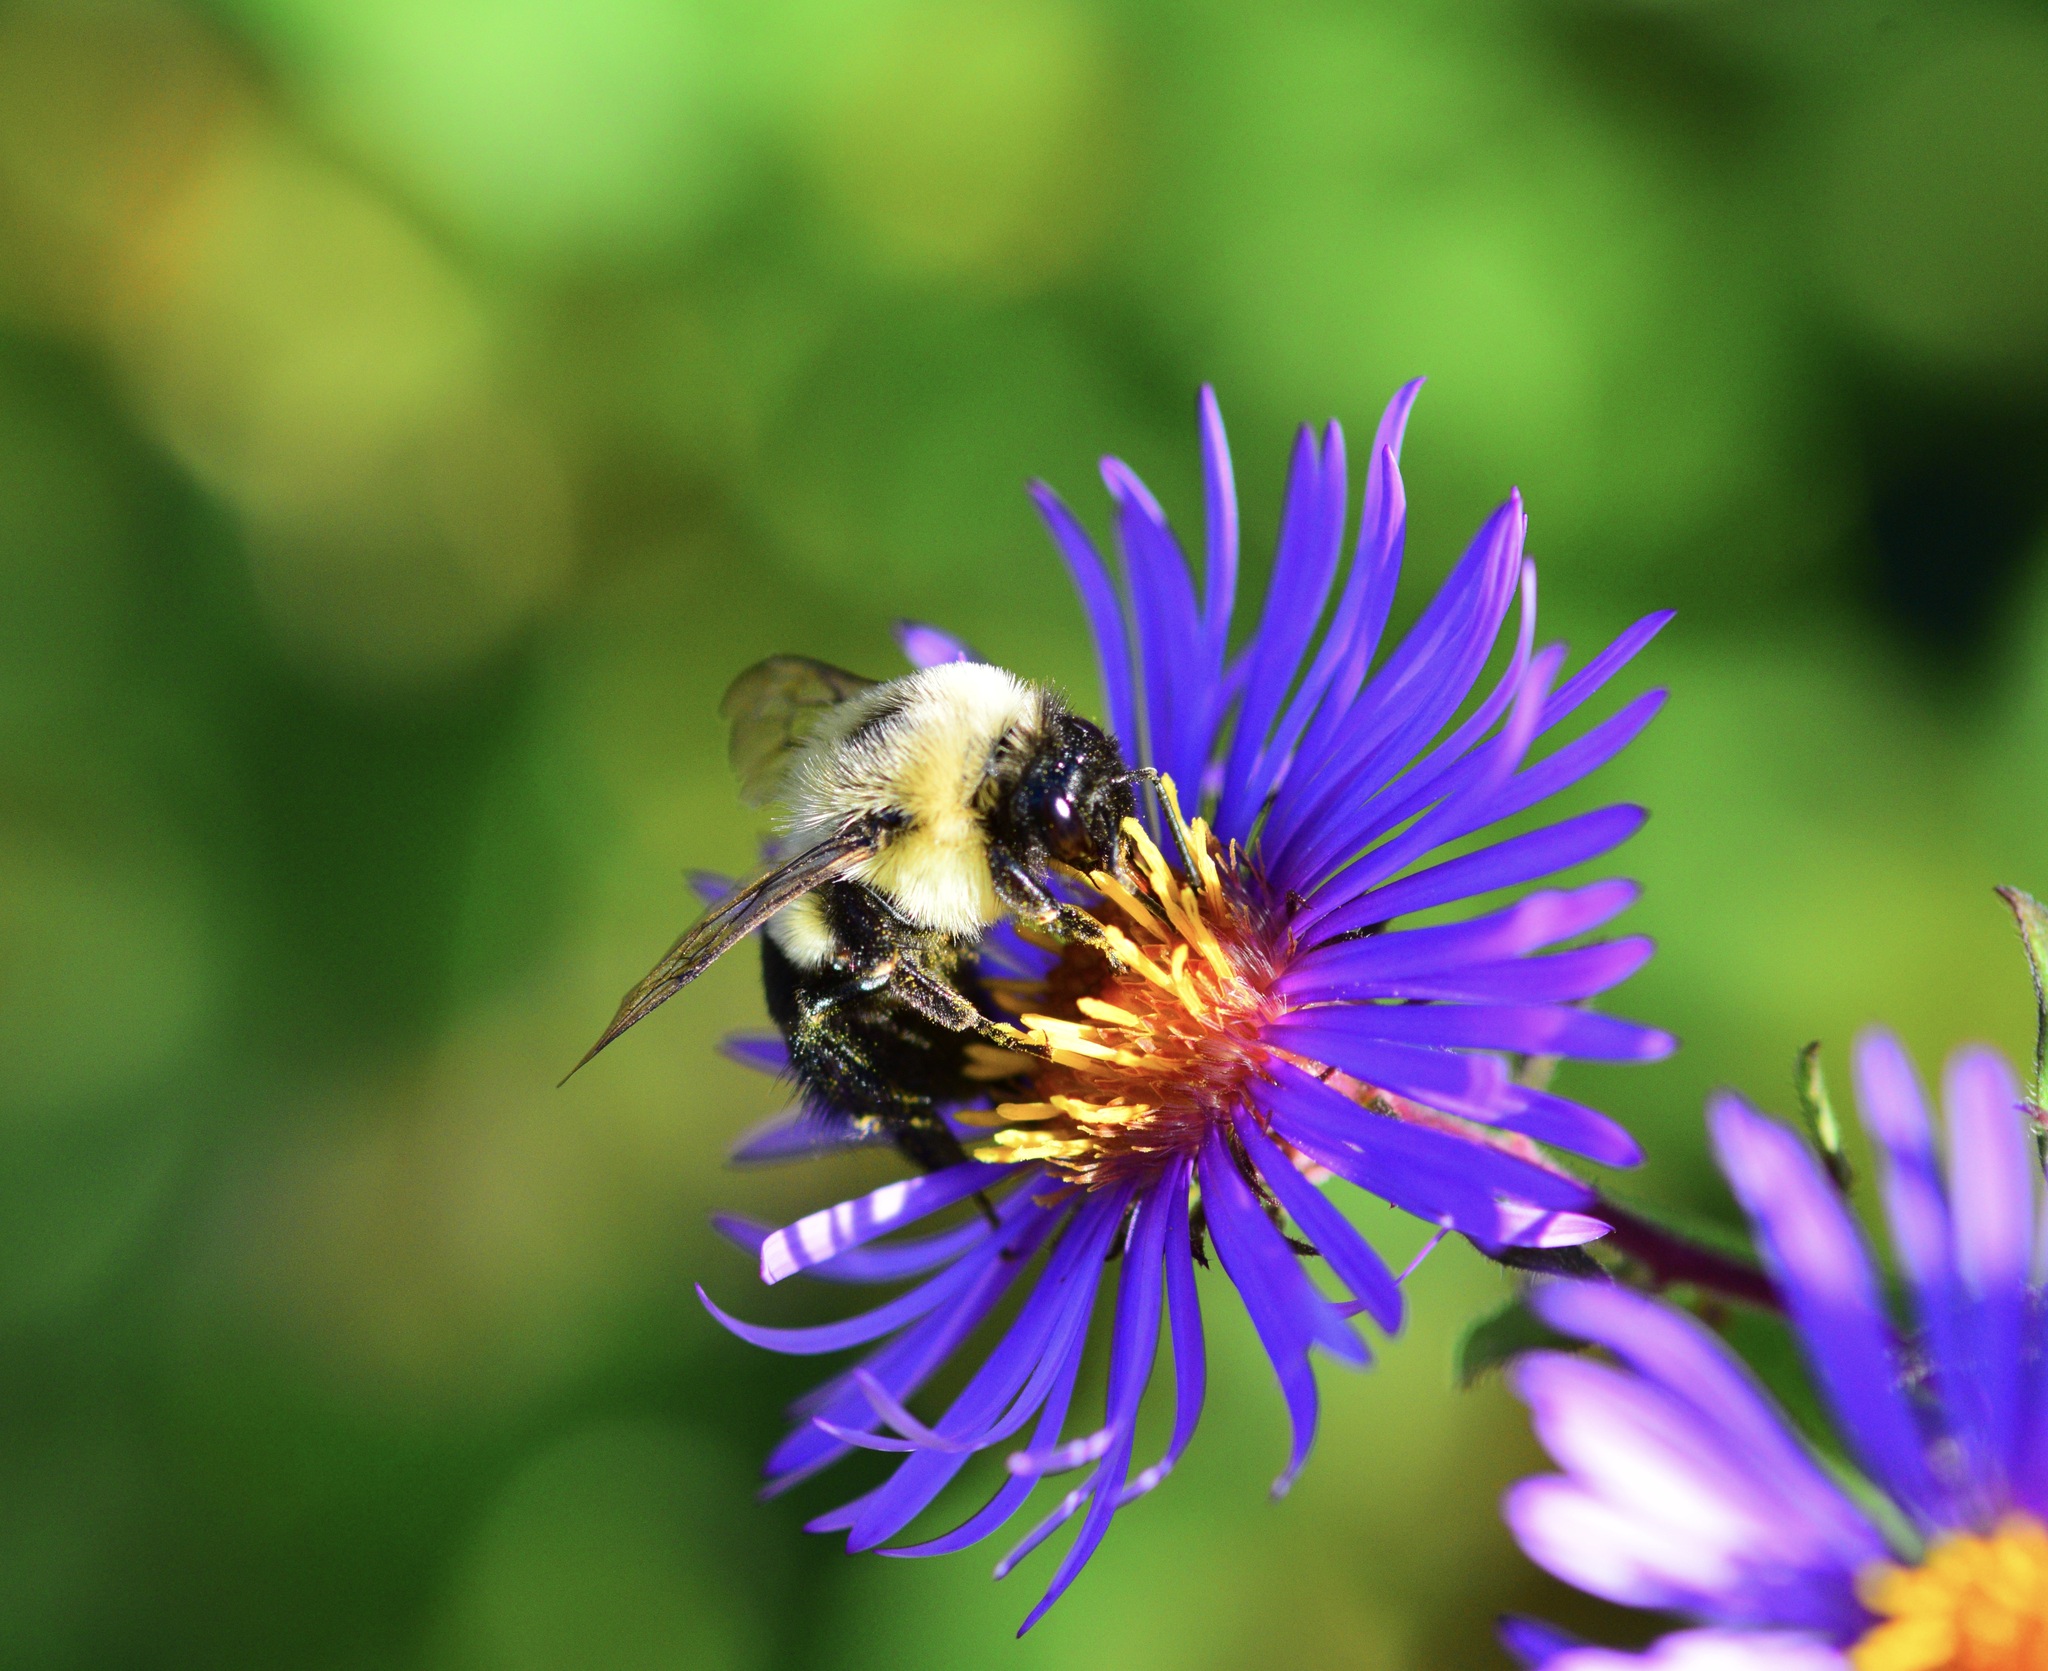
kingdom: Animalia
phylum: Arthropoda
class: Insecta
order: Hymenoptera
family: Apidae
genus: Bombus
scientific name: Bombus impatiens
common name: Common eastern bumble bee
